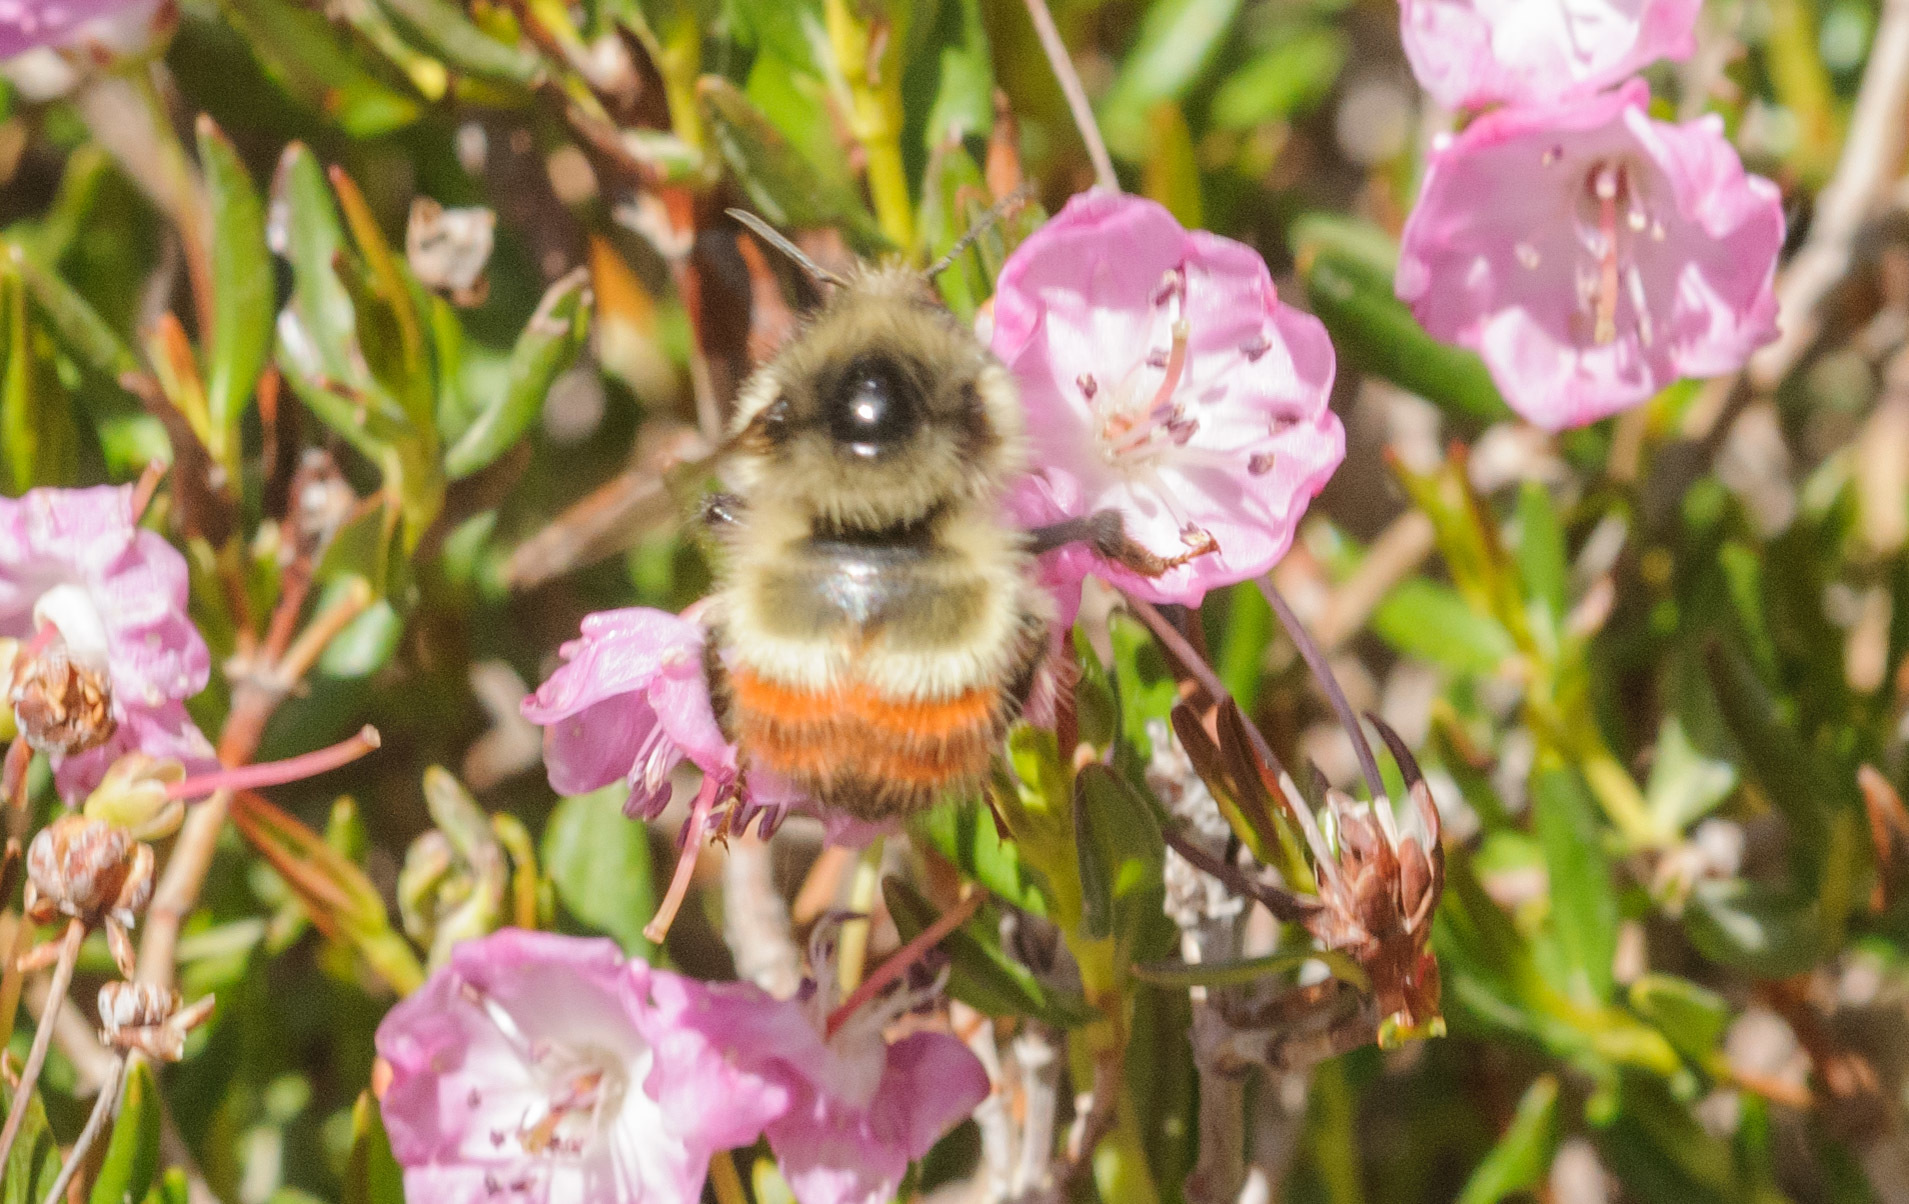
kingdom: Animalia
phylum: Arthropoda
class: Insecta
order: Hymenoptera
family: Apidae
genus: Bombus
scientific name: Bombus flavifrons
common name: Yellow head bumble bee
